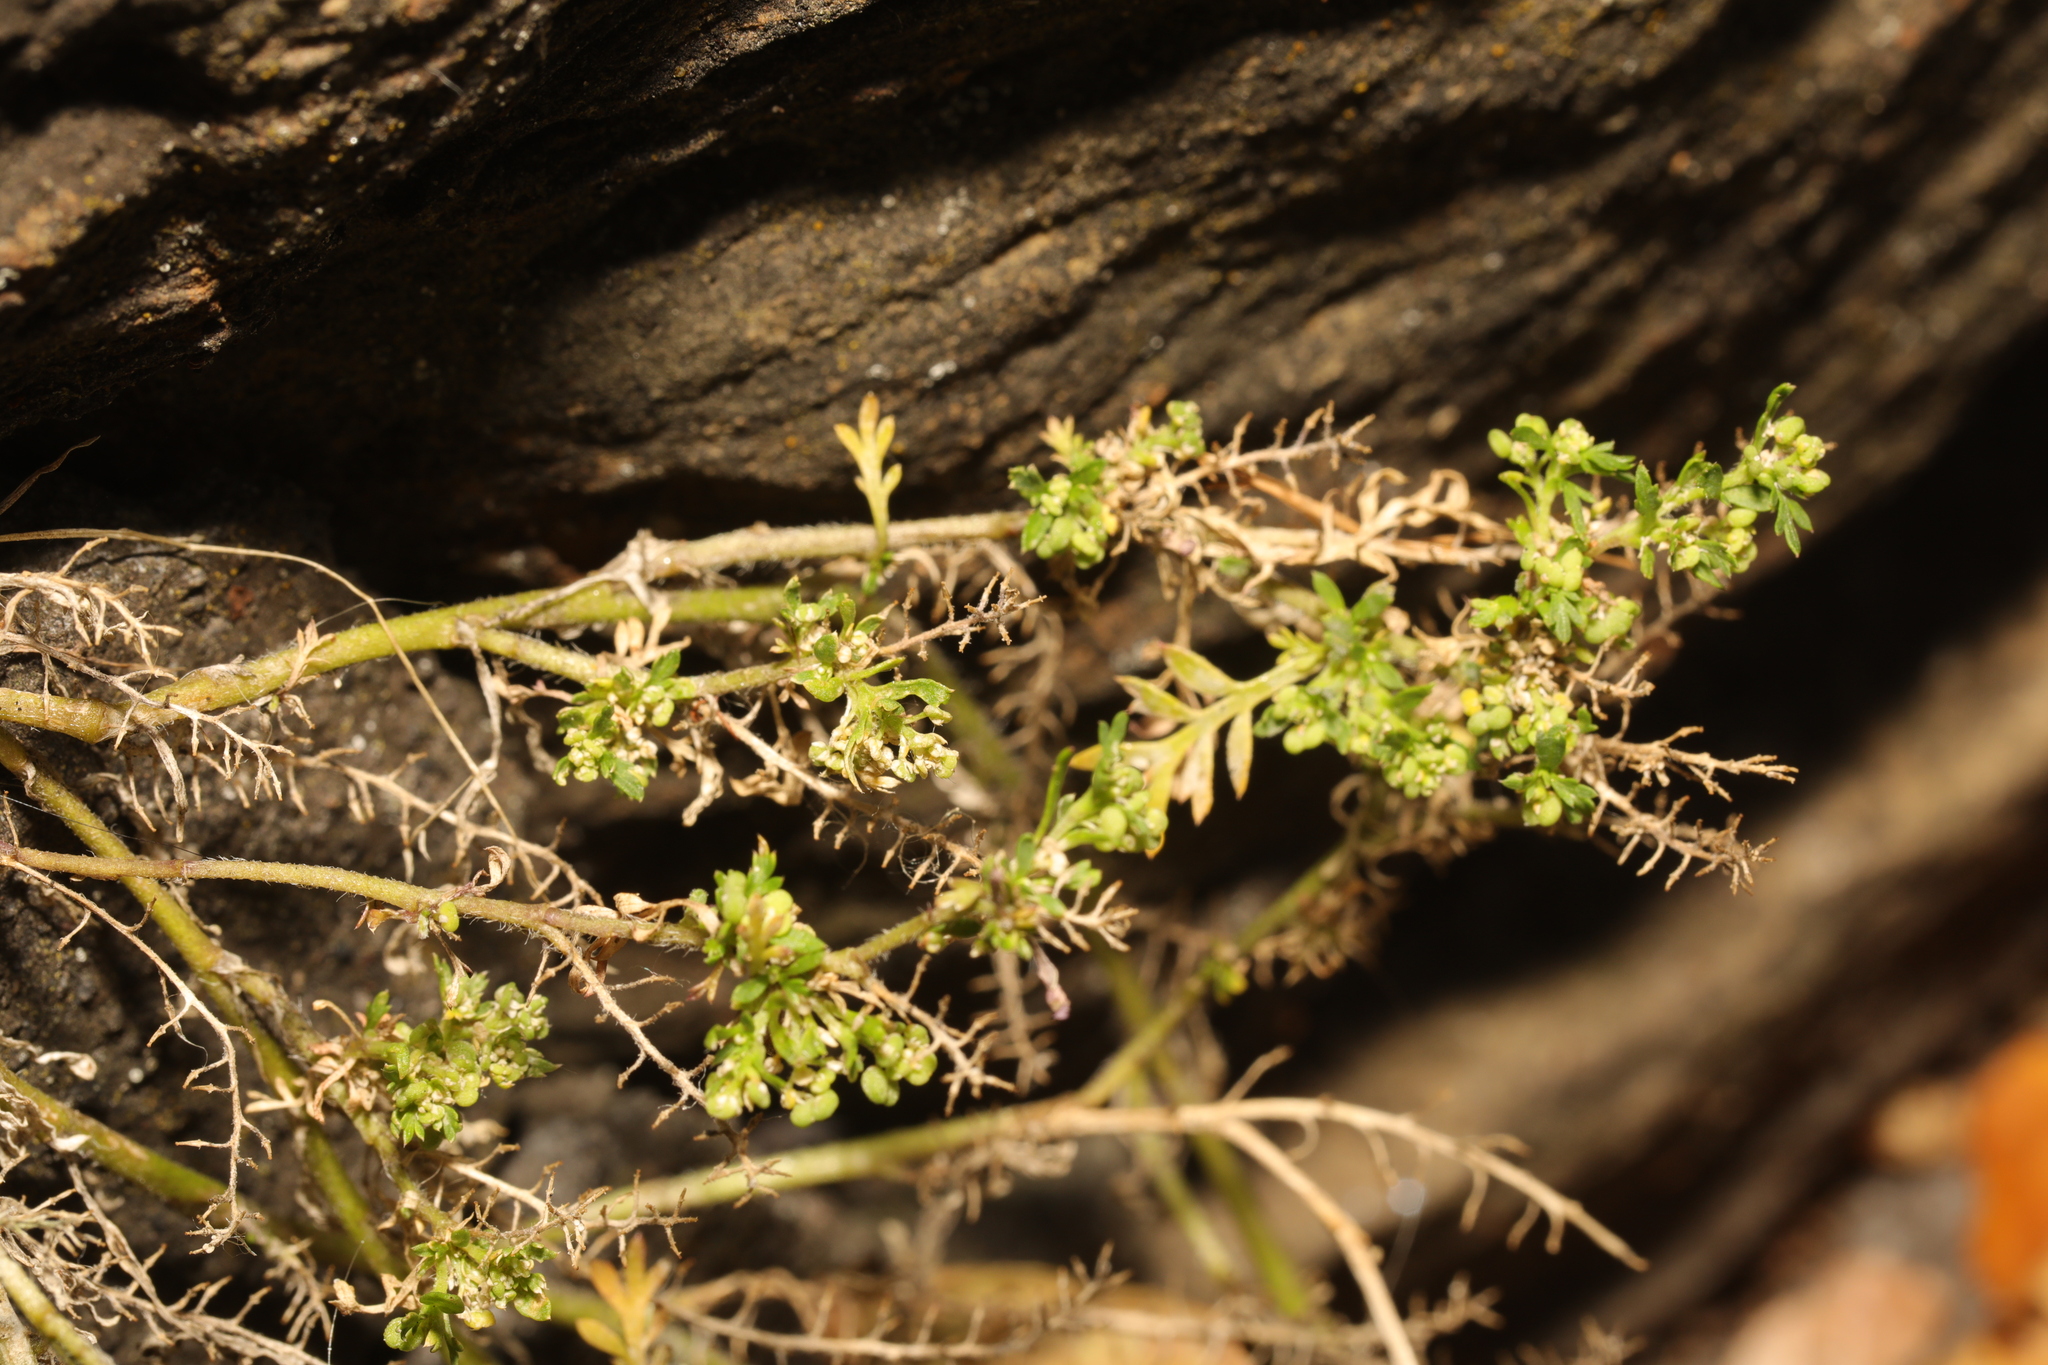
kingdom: Plantae
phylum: Tracheophyta
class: Magnoliopsida
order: Brassicales
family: Brassicaceae
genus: Lepidium
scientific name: Lepidium didymum
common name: Lesser swinecress
